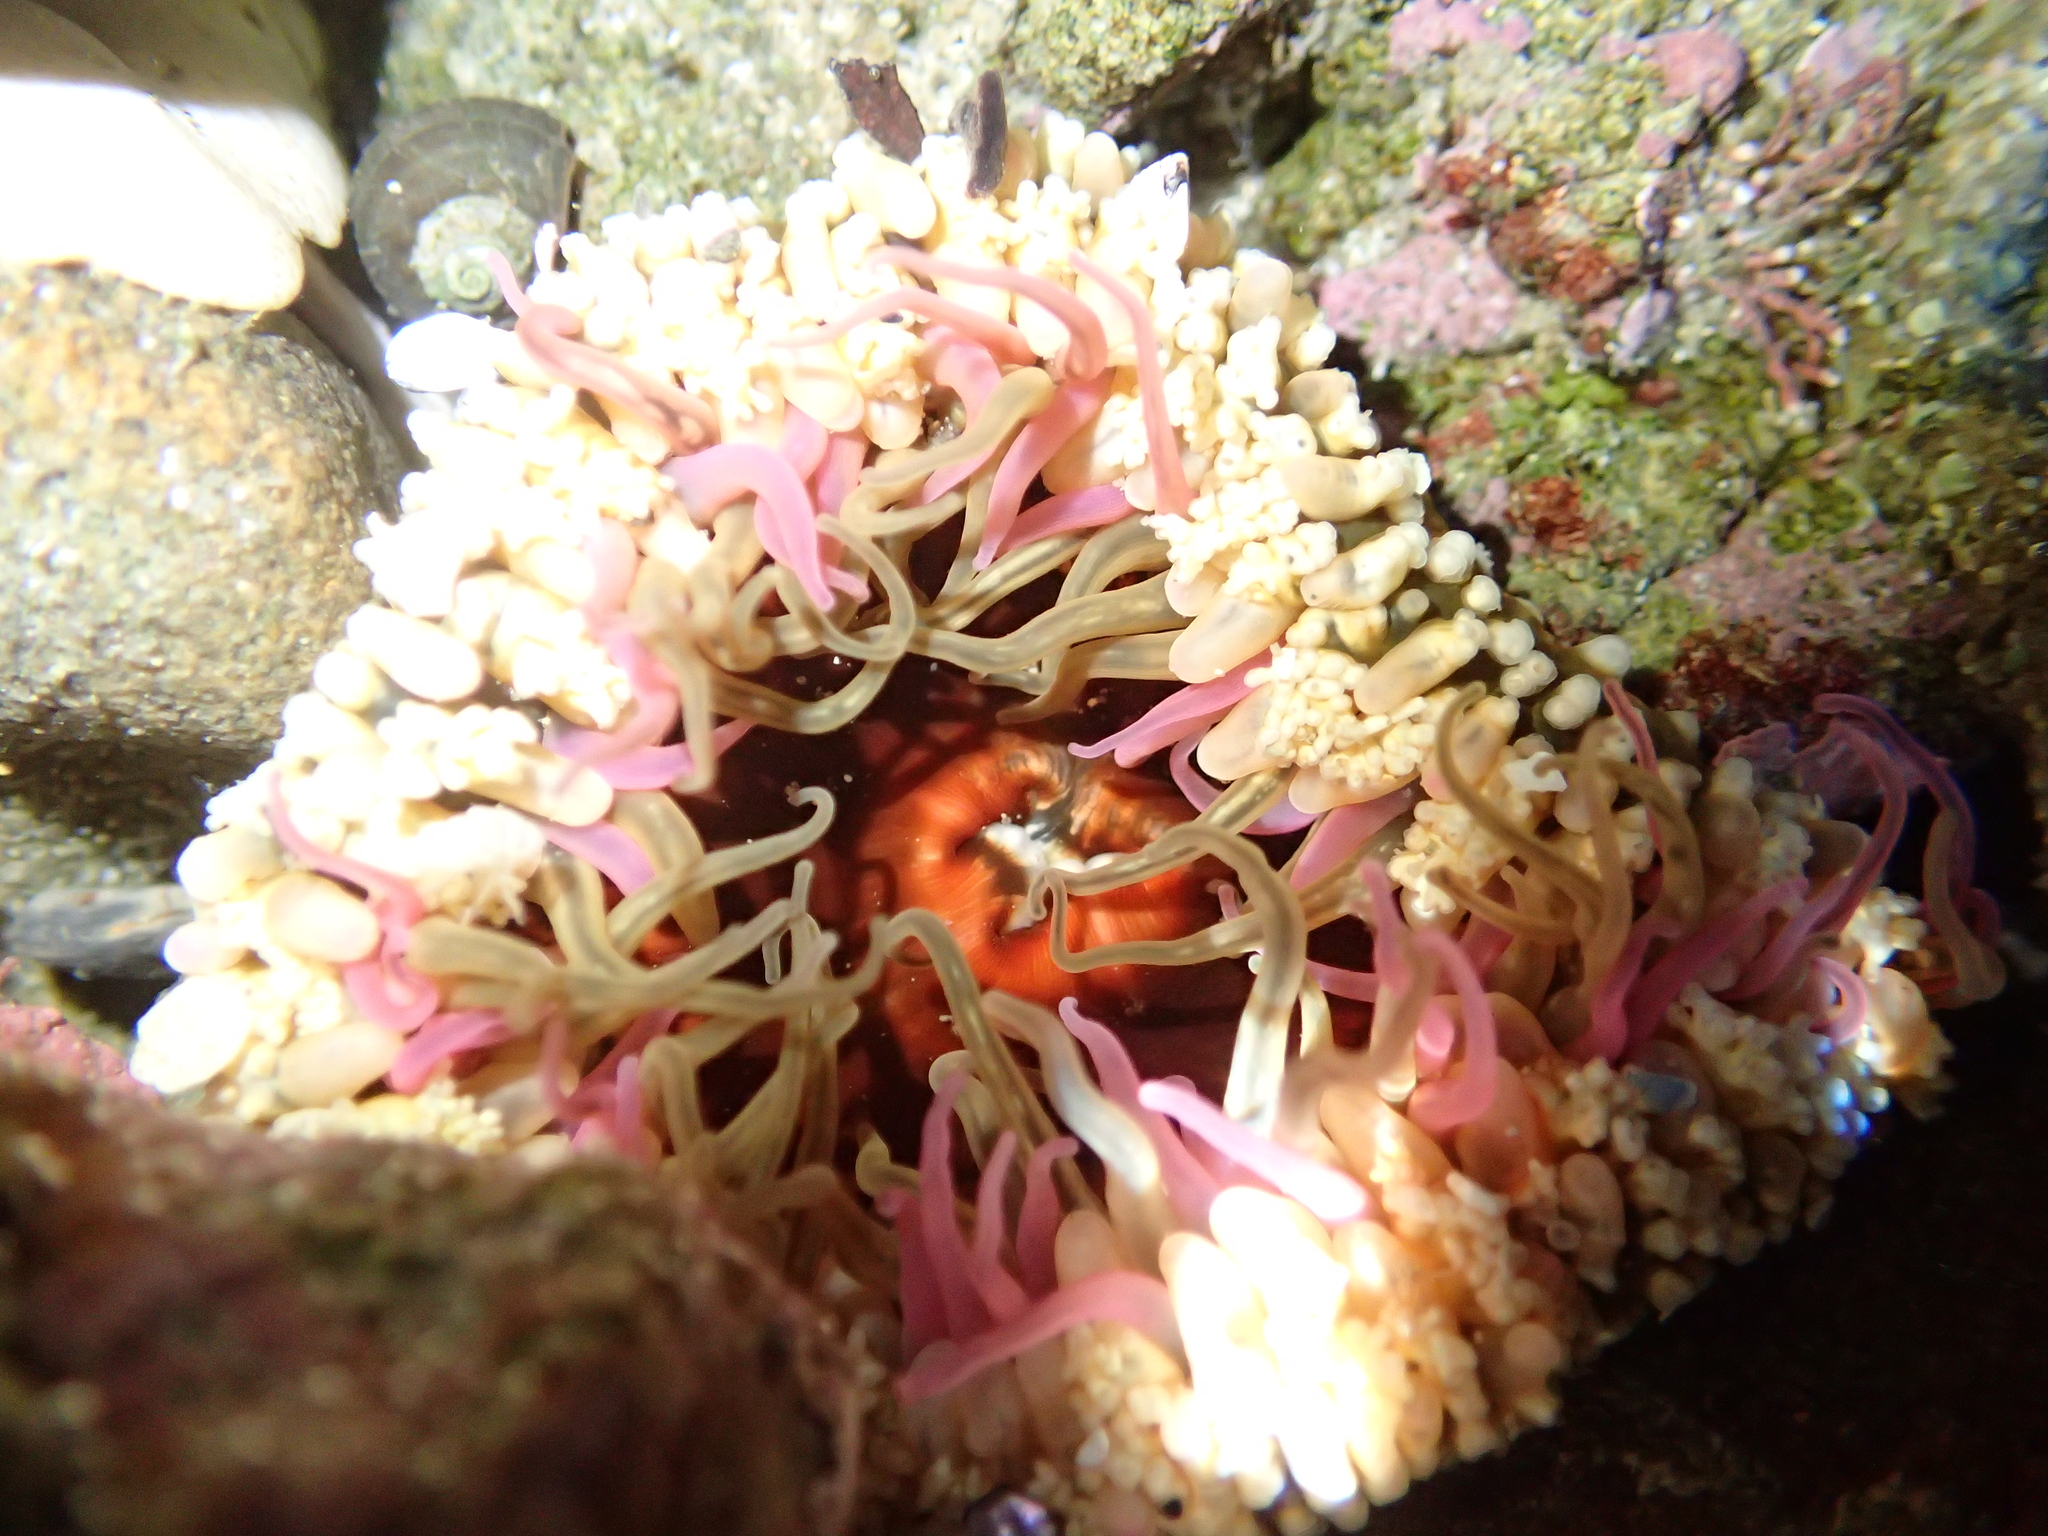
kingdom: Animalia
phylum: Cnidaria
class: Anthozoa
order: Actiniaria
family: Actiniidae
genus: Oulactis
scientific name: Oulactis muscosa
